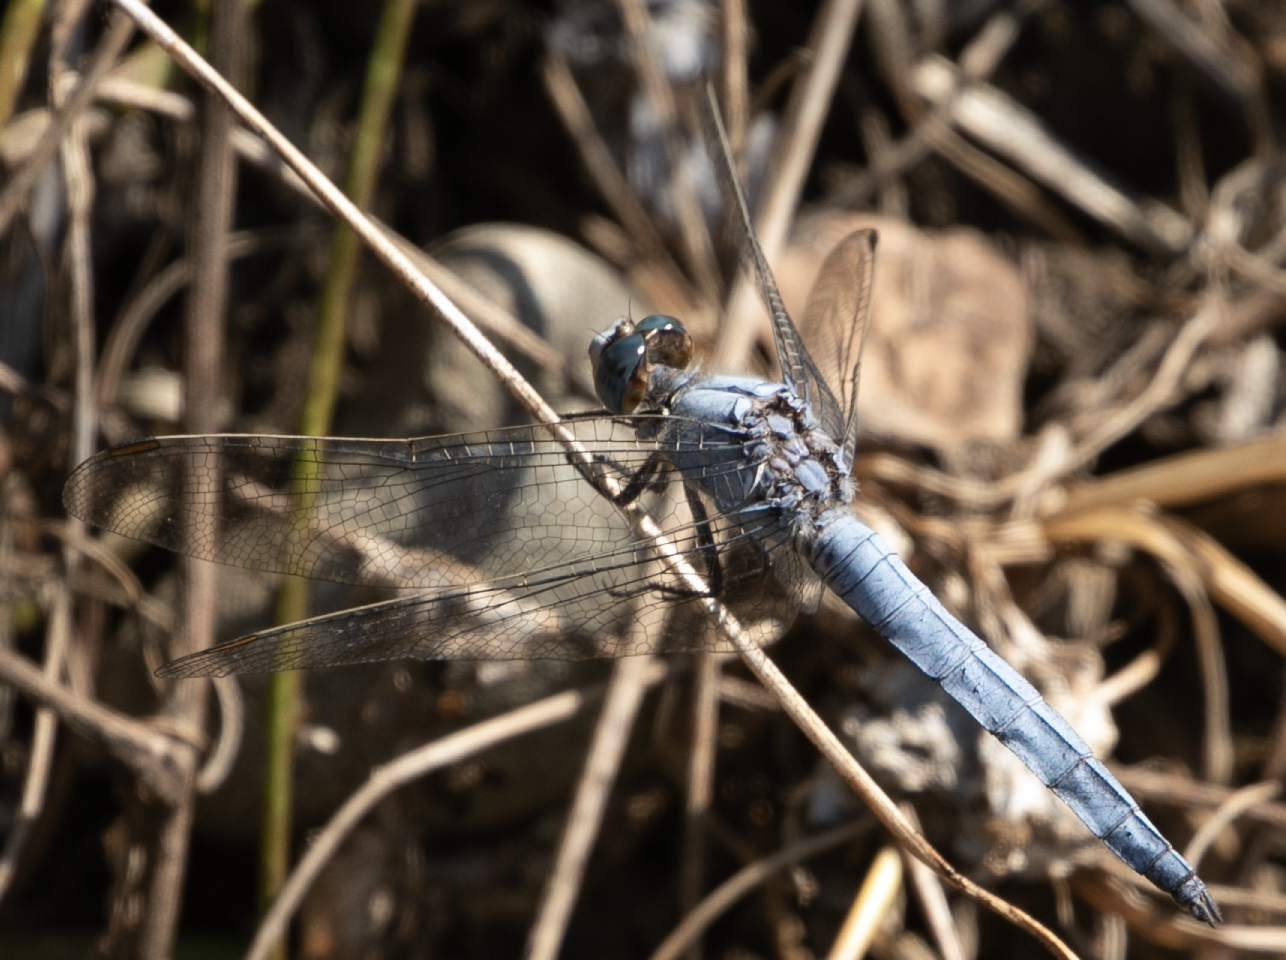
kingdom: Animalia
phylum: Arthropoda
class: Insecta
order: Odonata
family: Libellulidae
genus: Orthetrum
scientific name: Orthetrum brunneum
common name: Southern skimmer
